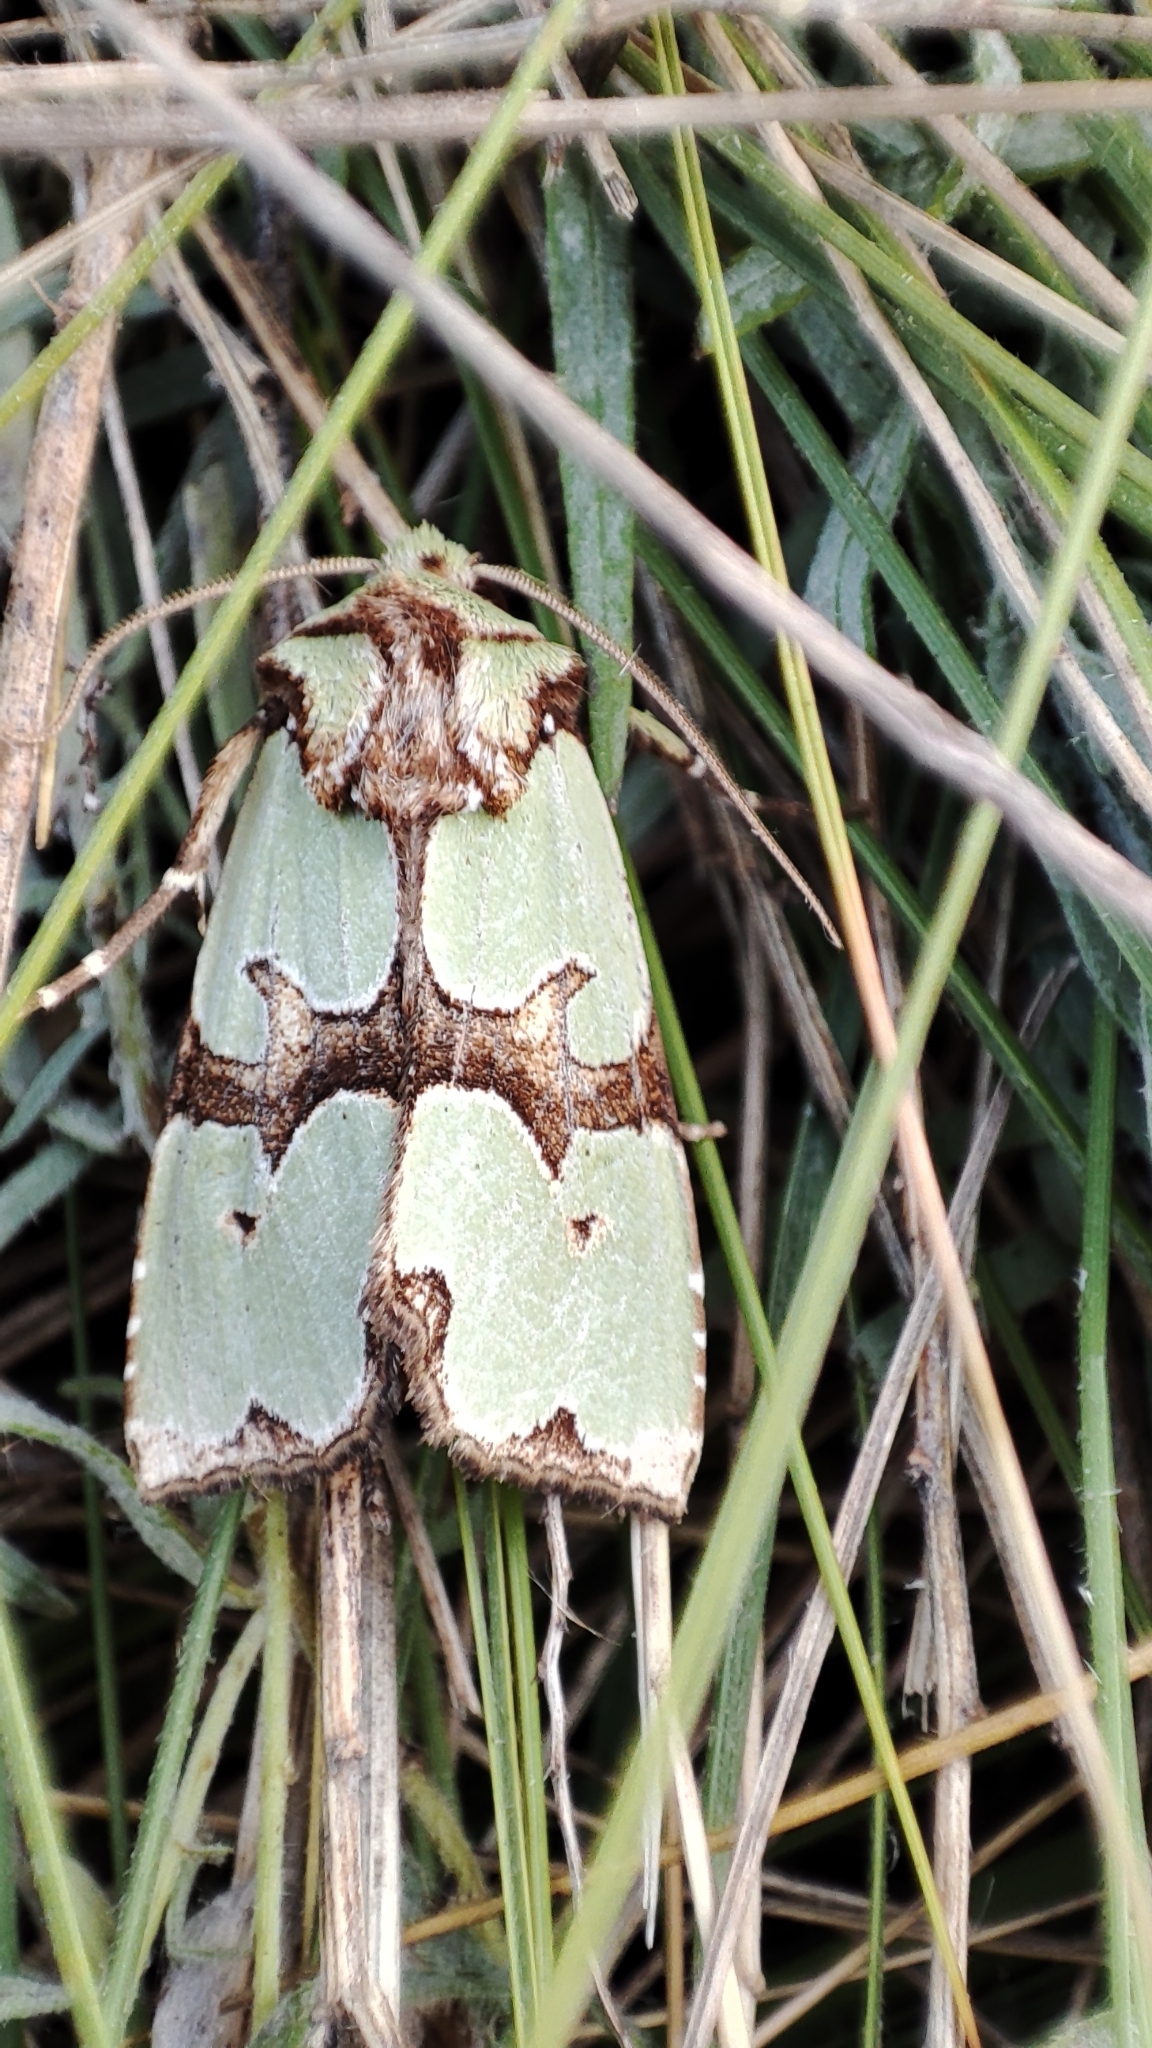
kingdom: Animalia
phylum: Arthropoda
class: Insecta
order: Lepidoptera
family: Noctuidae
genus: Staurophora
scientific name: Staurophora celsia
